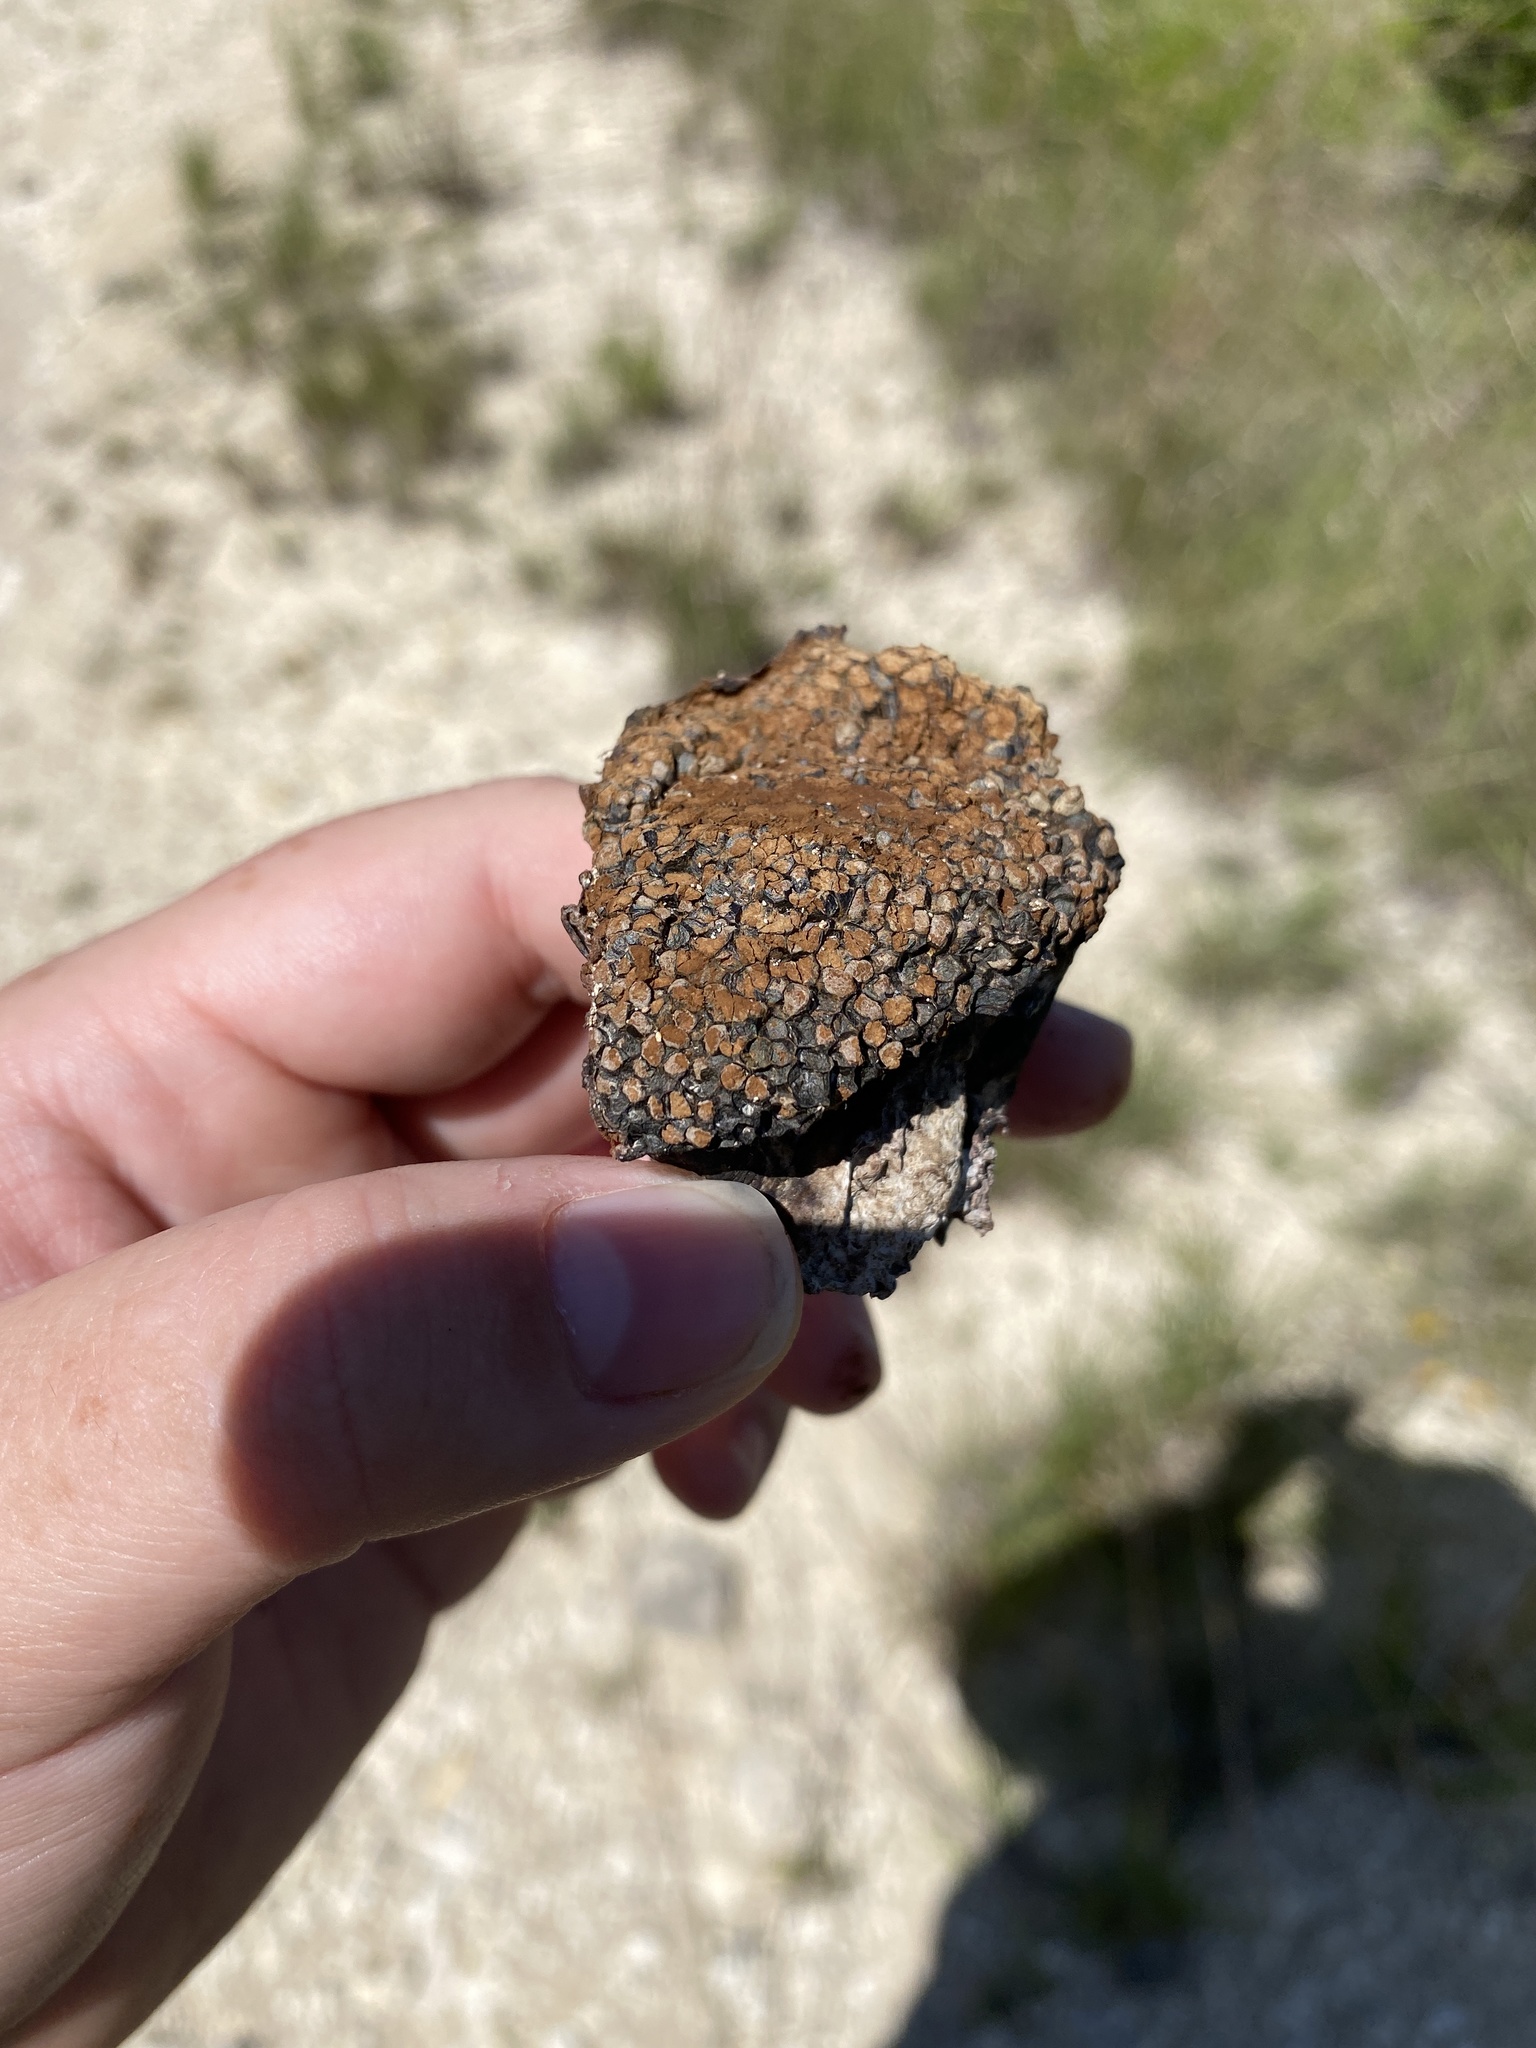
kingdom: Fungi
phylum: Basidiomycota
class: Agaricomycetes
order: Boletales
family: Sclerodermataceae
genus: Pisolithus
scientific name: Pisolithus arenarius
